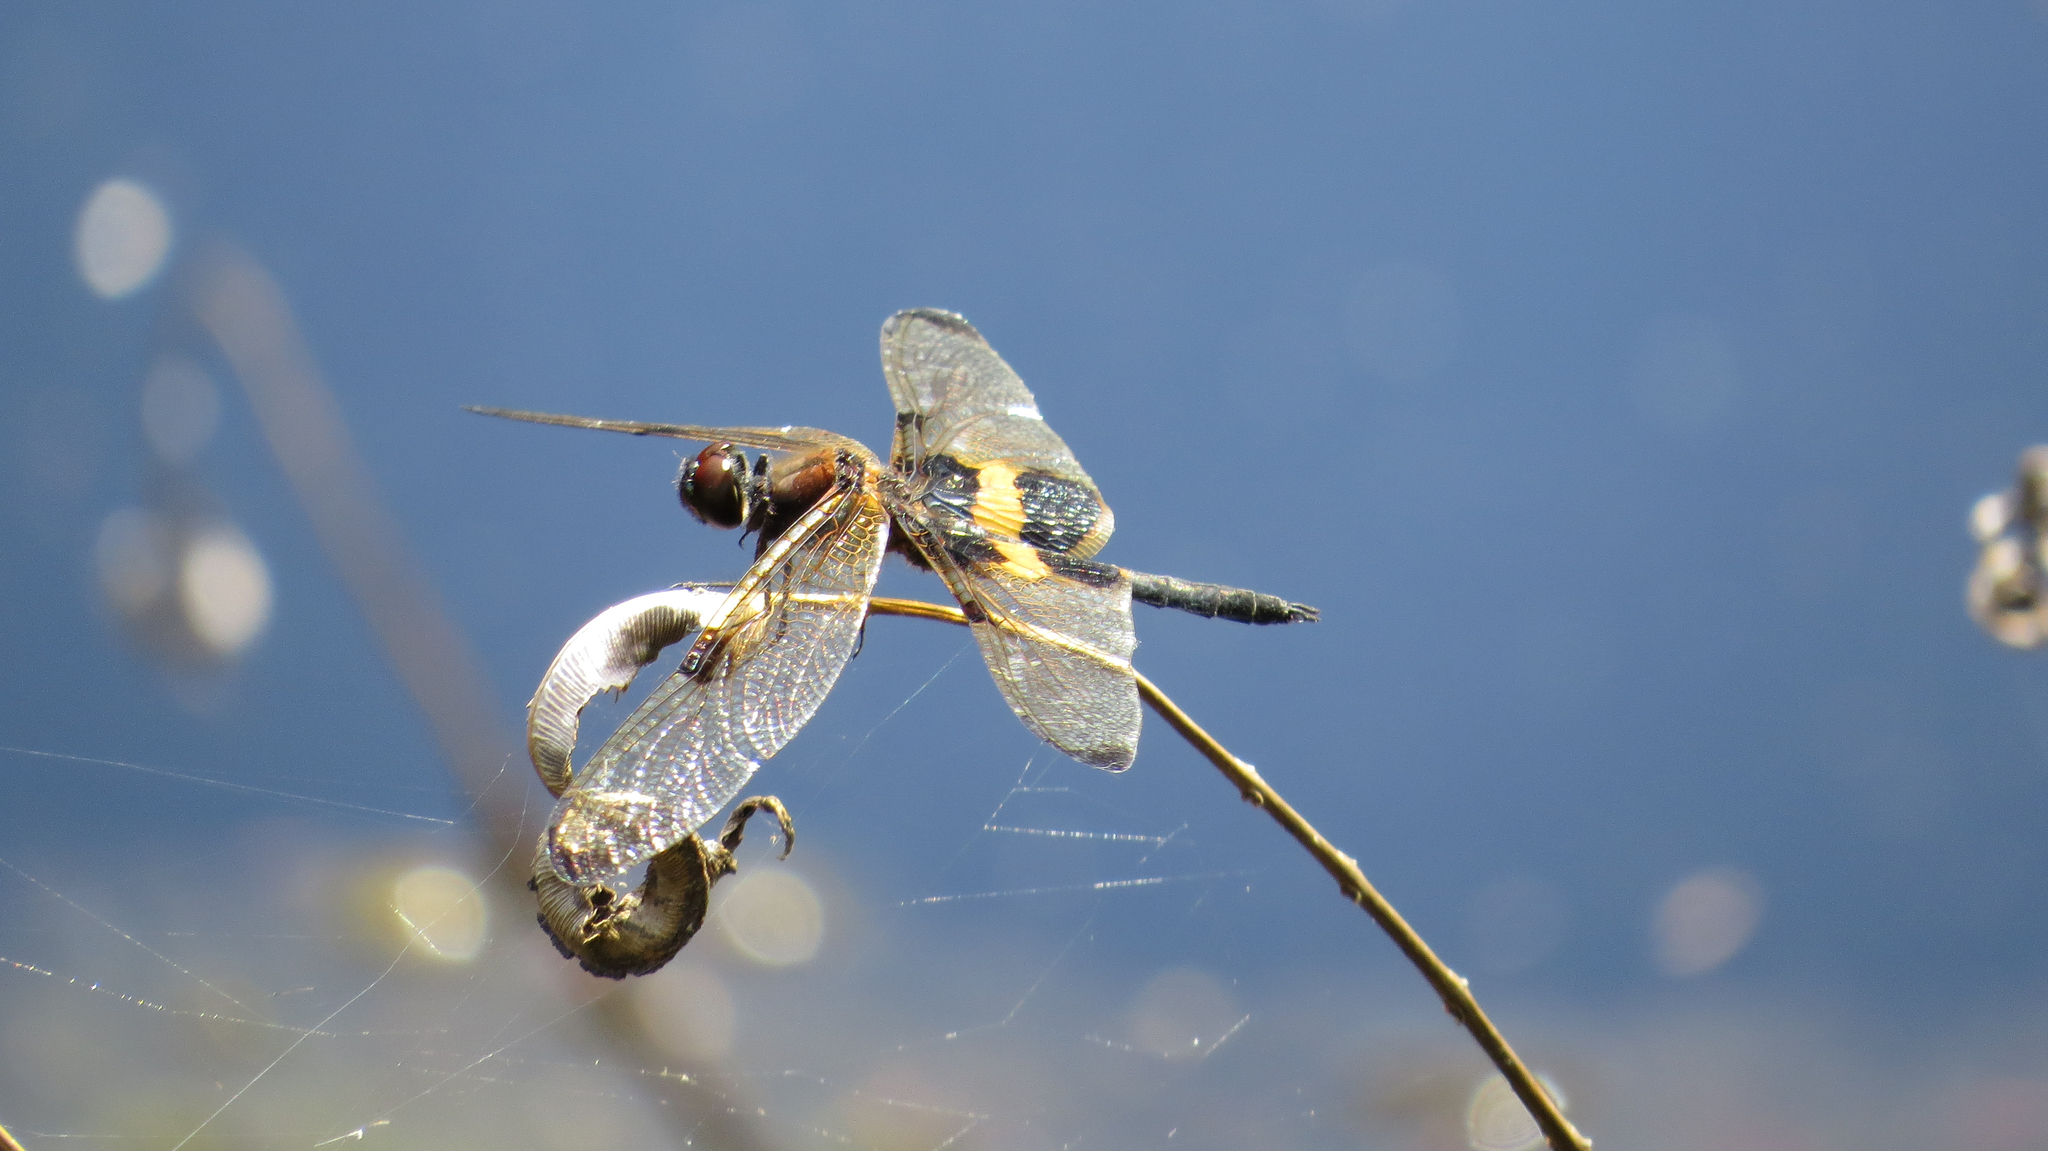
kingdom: Animalia
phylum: Arthropoda
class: Insecta
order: Odonata
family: Libellulidae
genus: Rhyothemis
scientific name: Rhyothemis phyllis
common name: Yellow-barred flutterer
